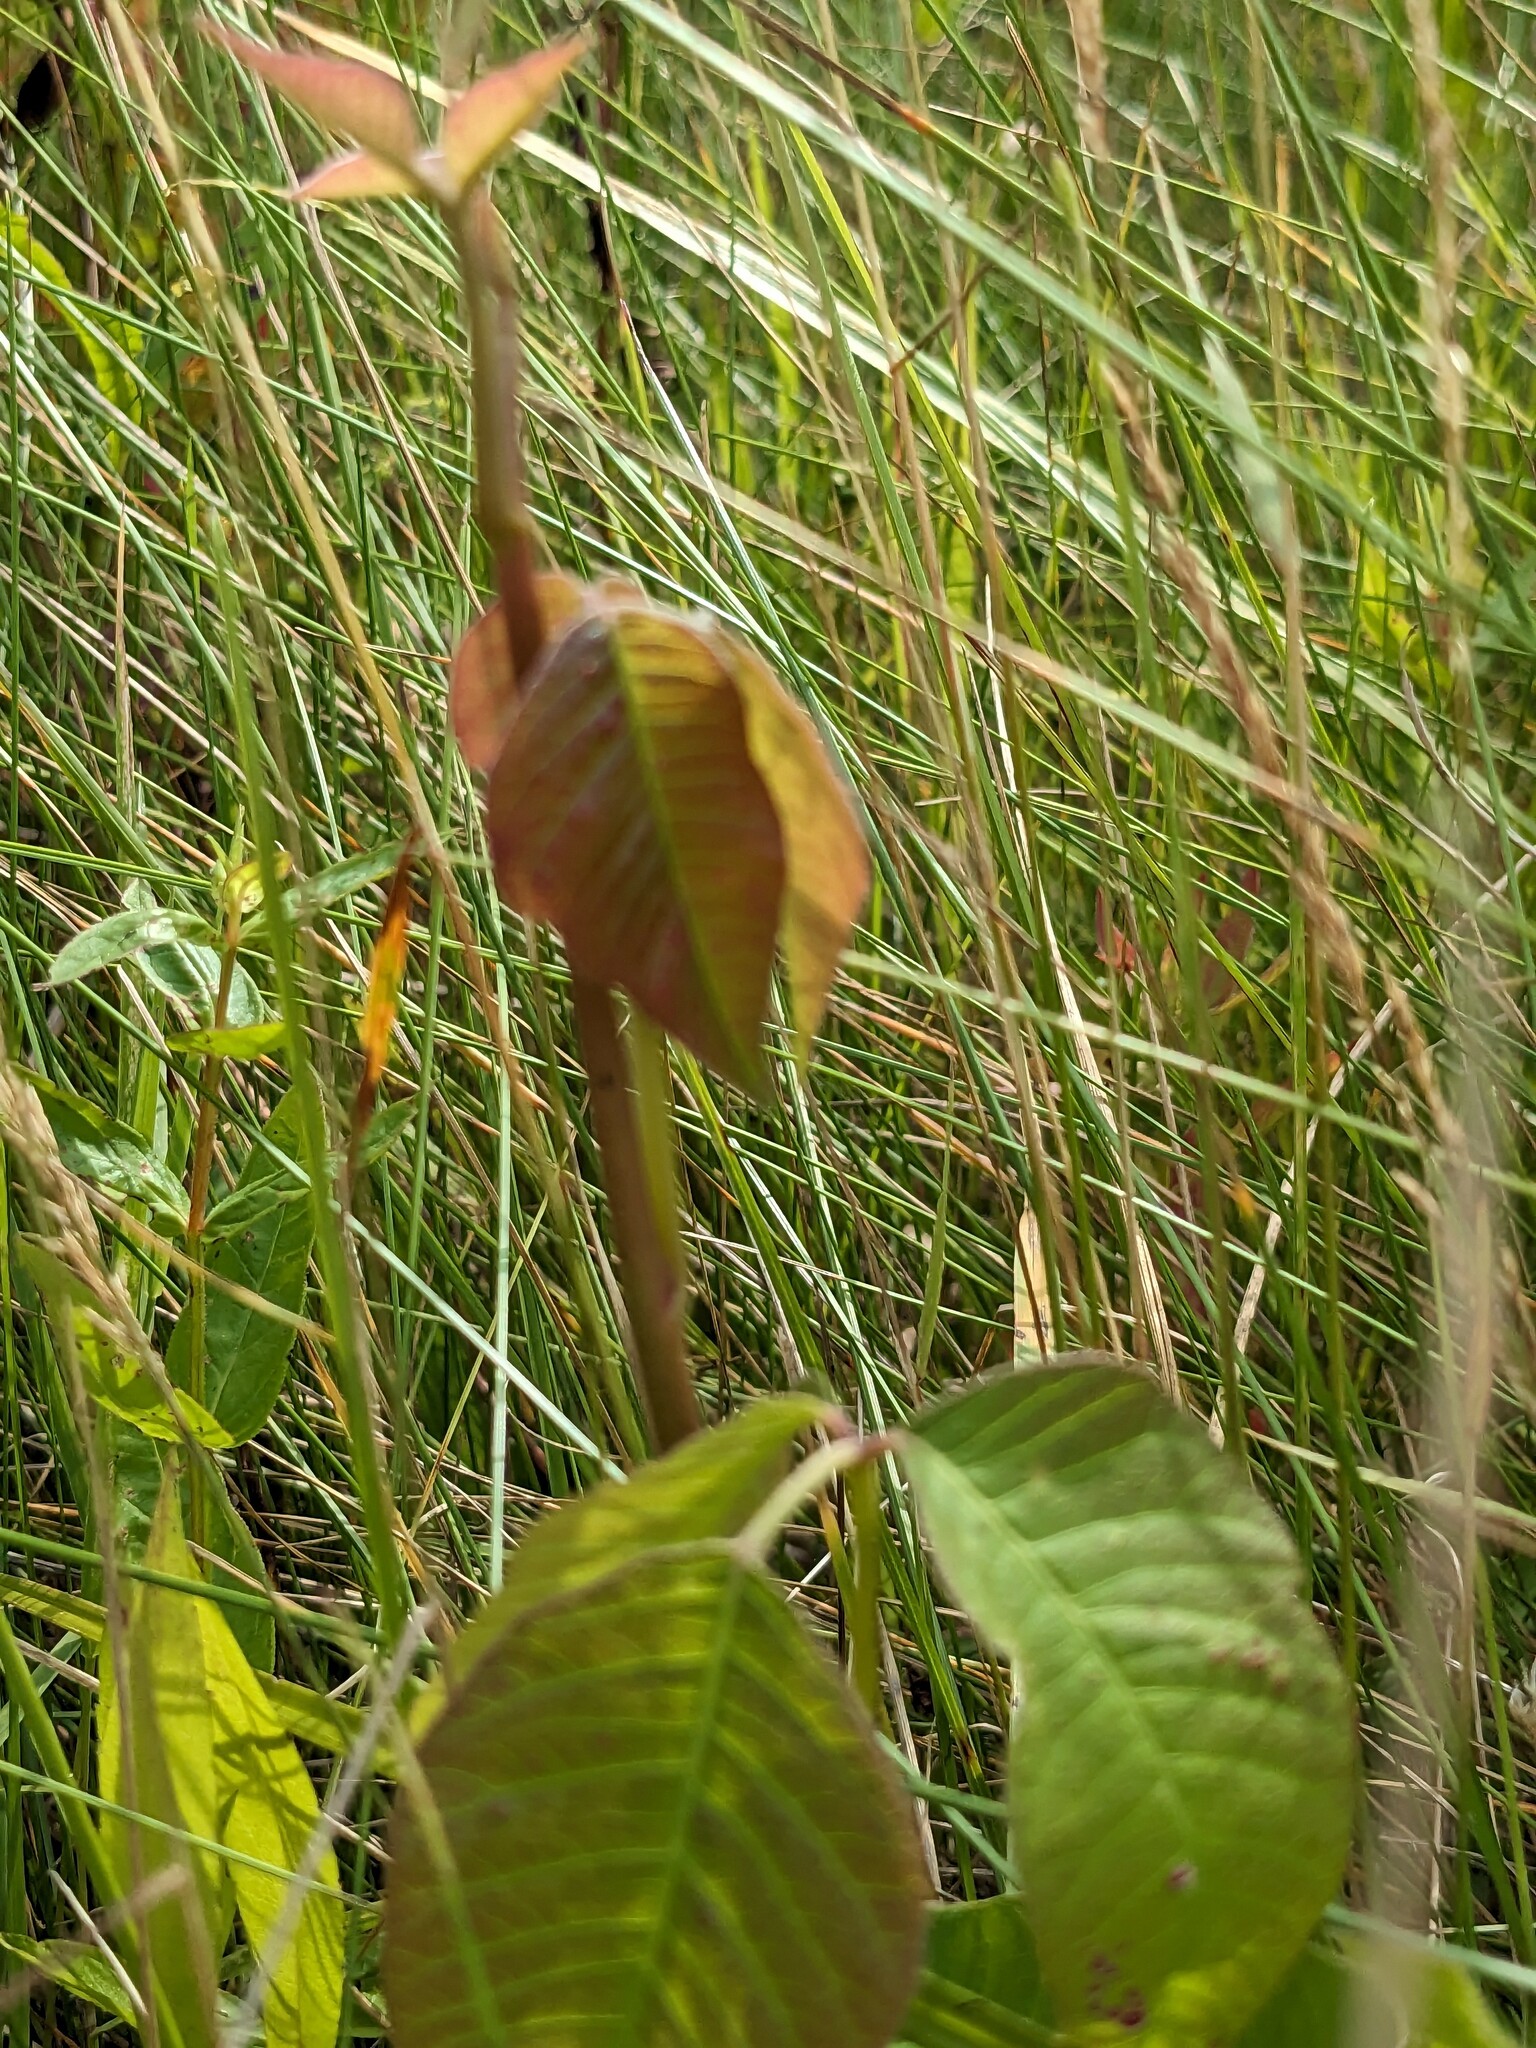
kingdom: Plantae
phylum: Tracheophyta
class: Magnoliopsida
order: Sapindales
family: Anacardiaceae
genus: Toxicodendron
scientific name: Toxicodendron radicans
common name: Poison ivy
